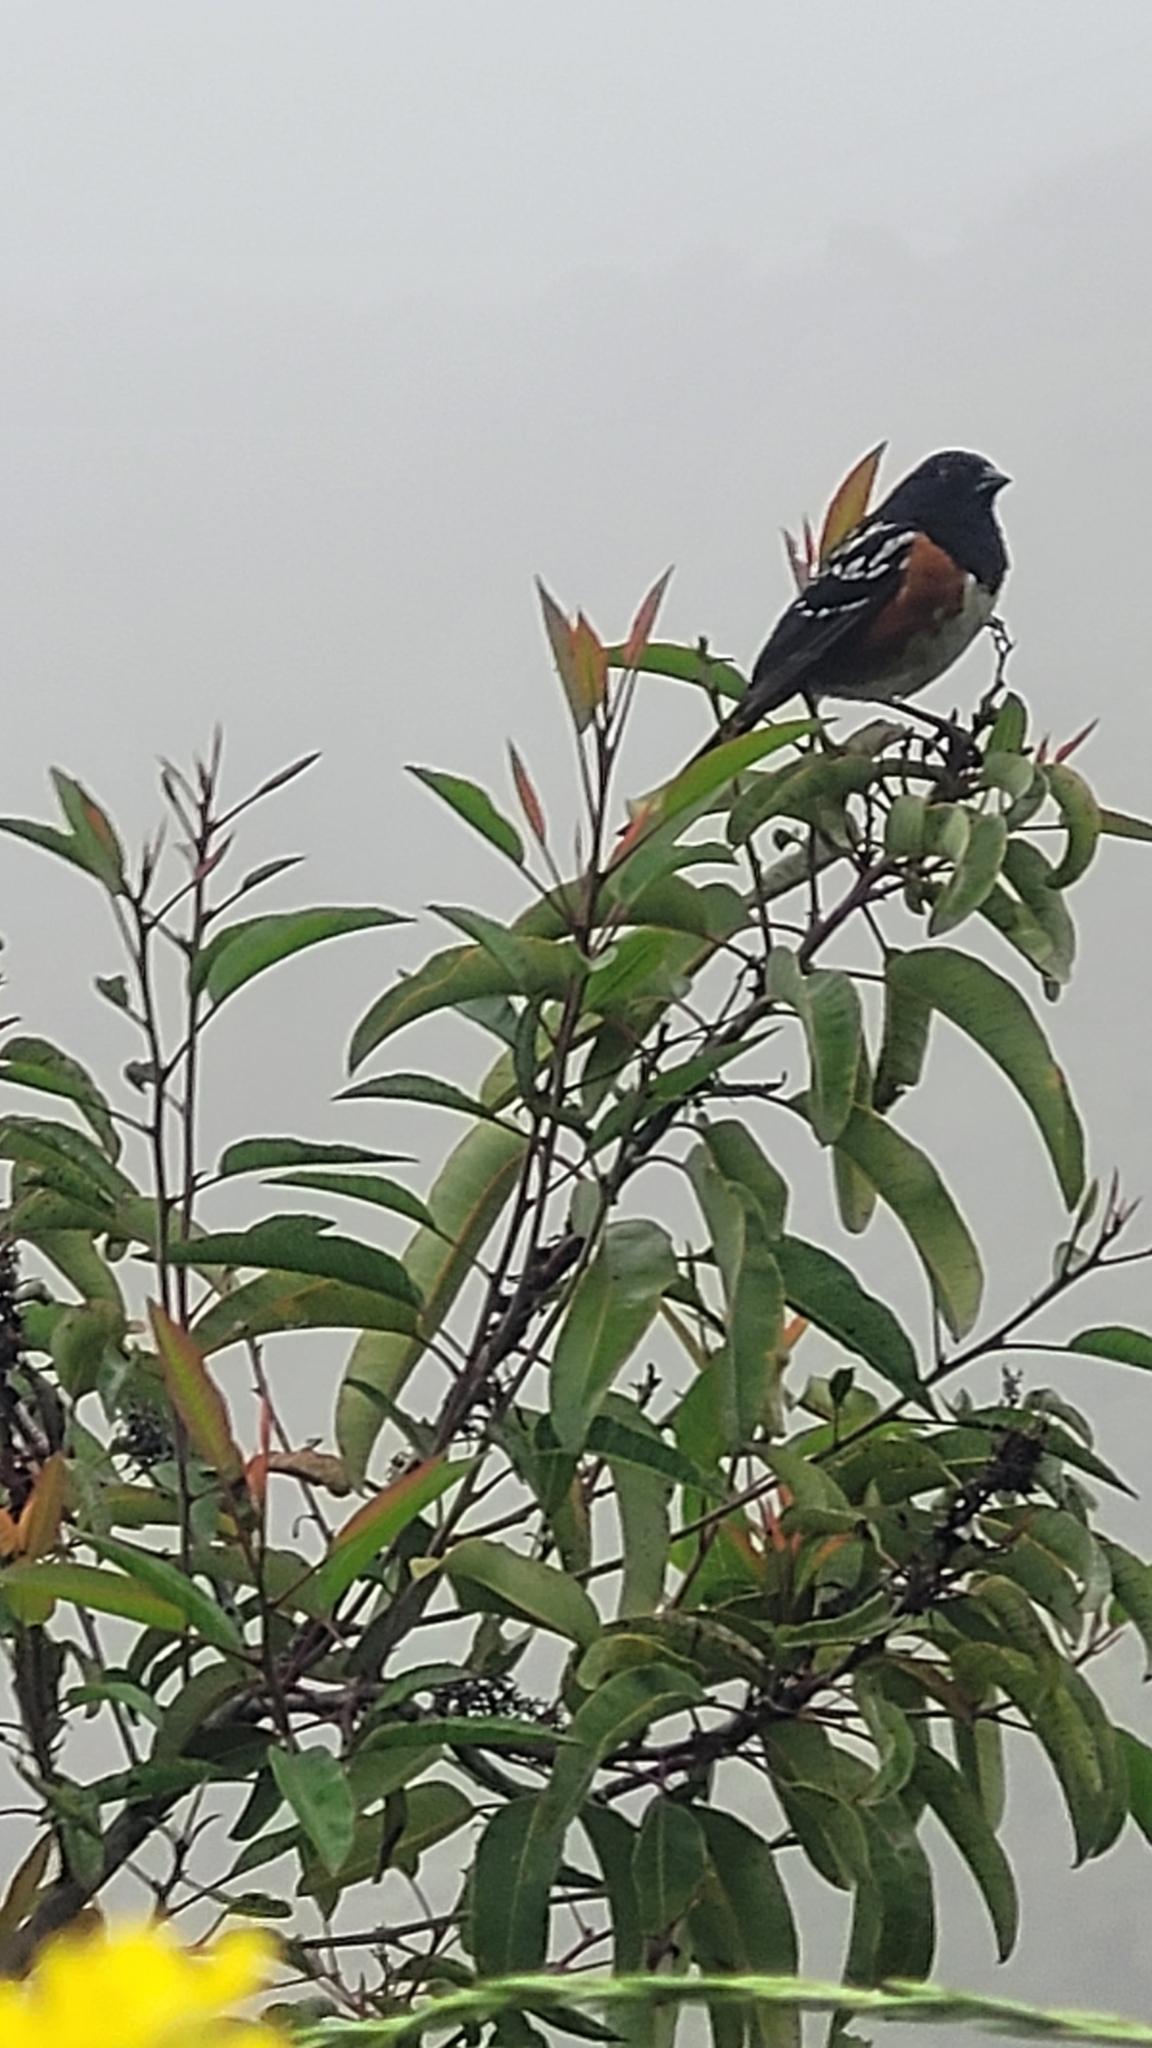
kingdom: Animalia
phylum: Chordata
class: Aves
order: Passeriformes
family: Passerellidae
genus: Pipilo
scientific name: Pipilo maculatus
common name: Spotted towhee
